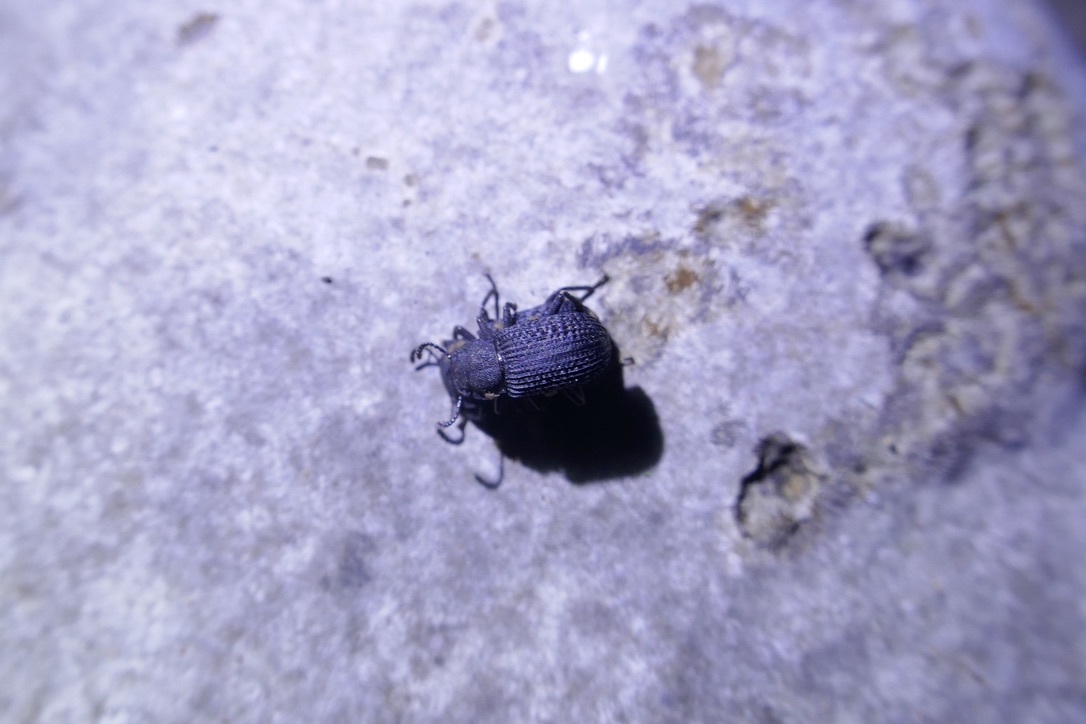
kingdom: Animalia
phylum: Arthropoda
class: Insecta
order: Coleoptera
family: Tenebrionidae
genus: Bolitophagus
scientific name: Bolitophagus reticulatus
